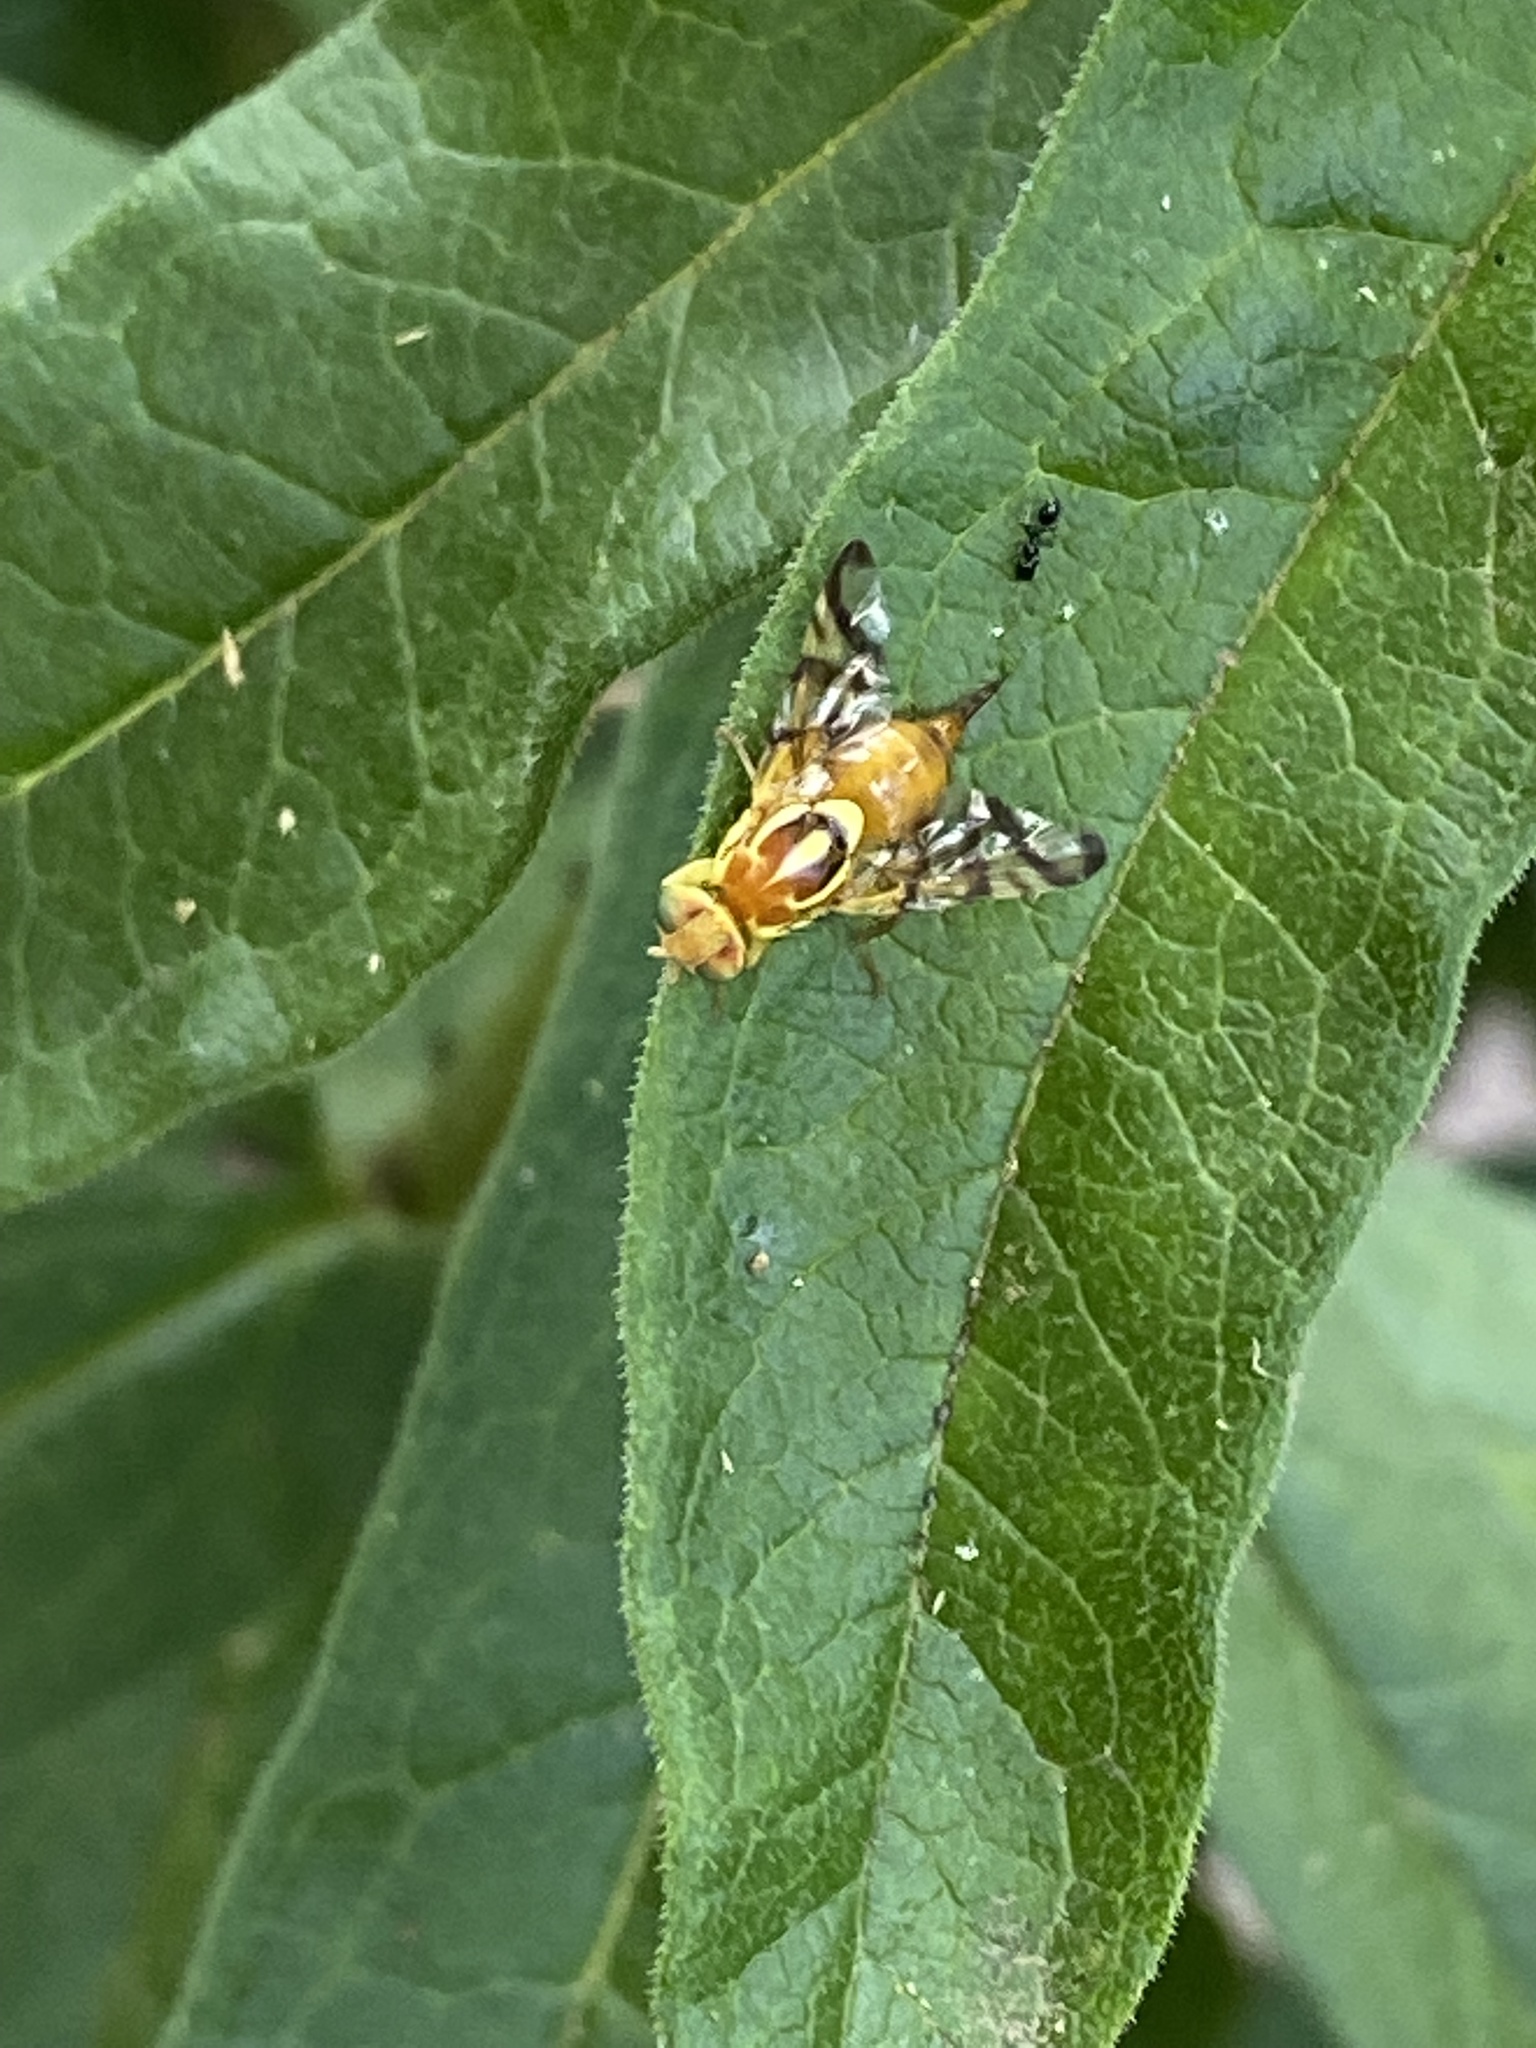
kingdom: Animalia
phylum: Arthropoda
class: Insecta
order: Diptera
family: Tephritidae
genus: Zonosemata
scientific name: Zonosemata electa
